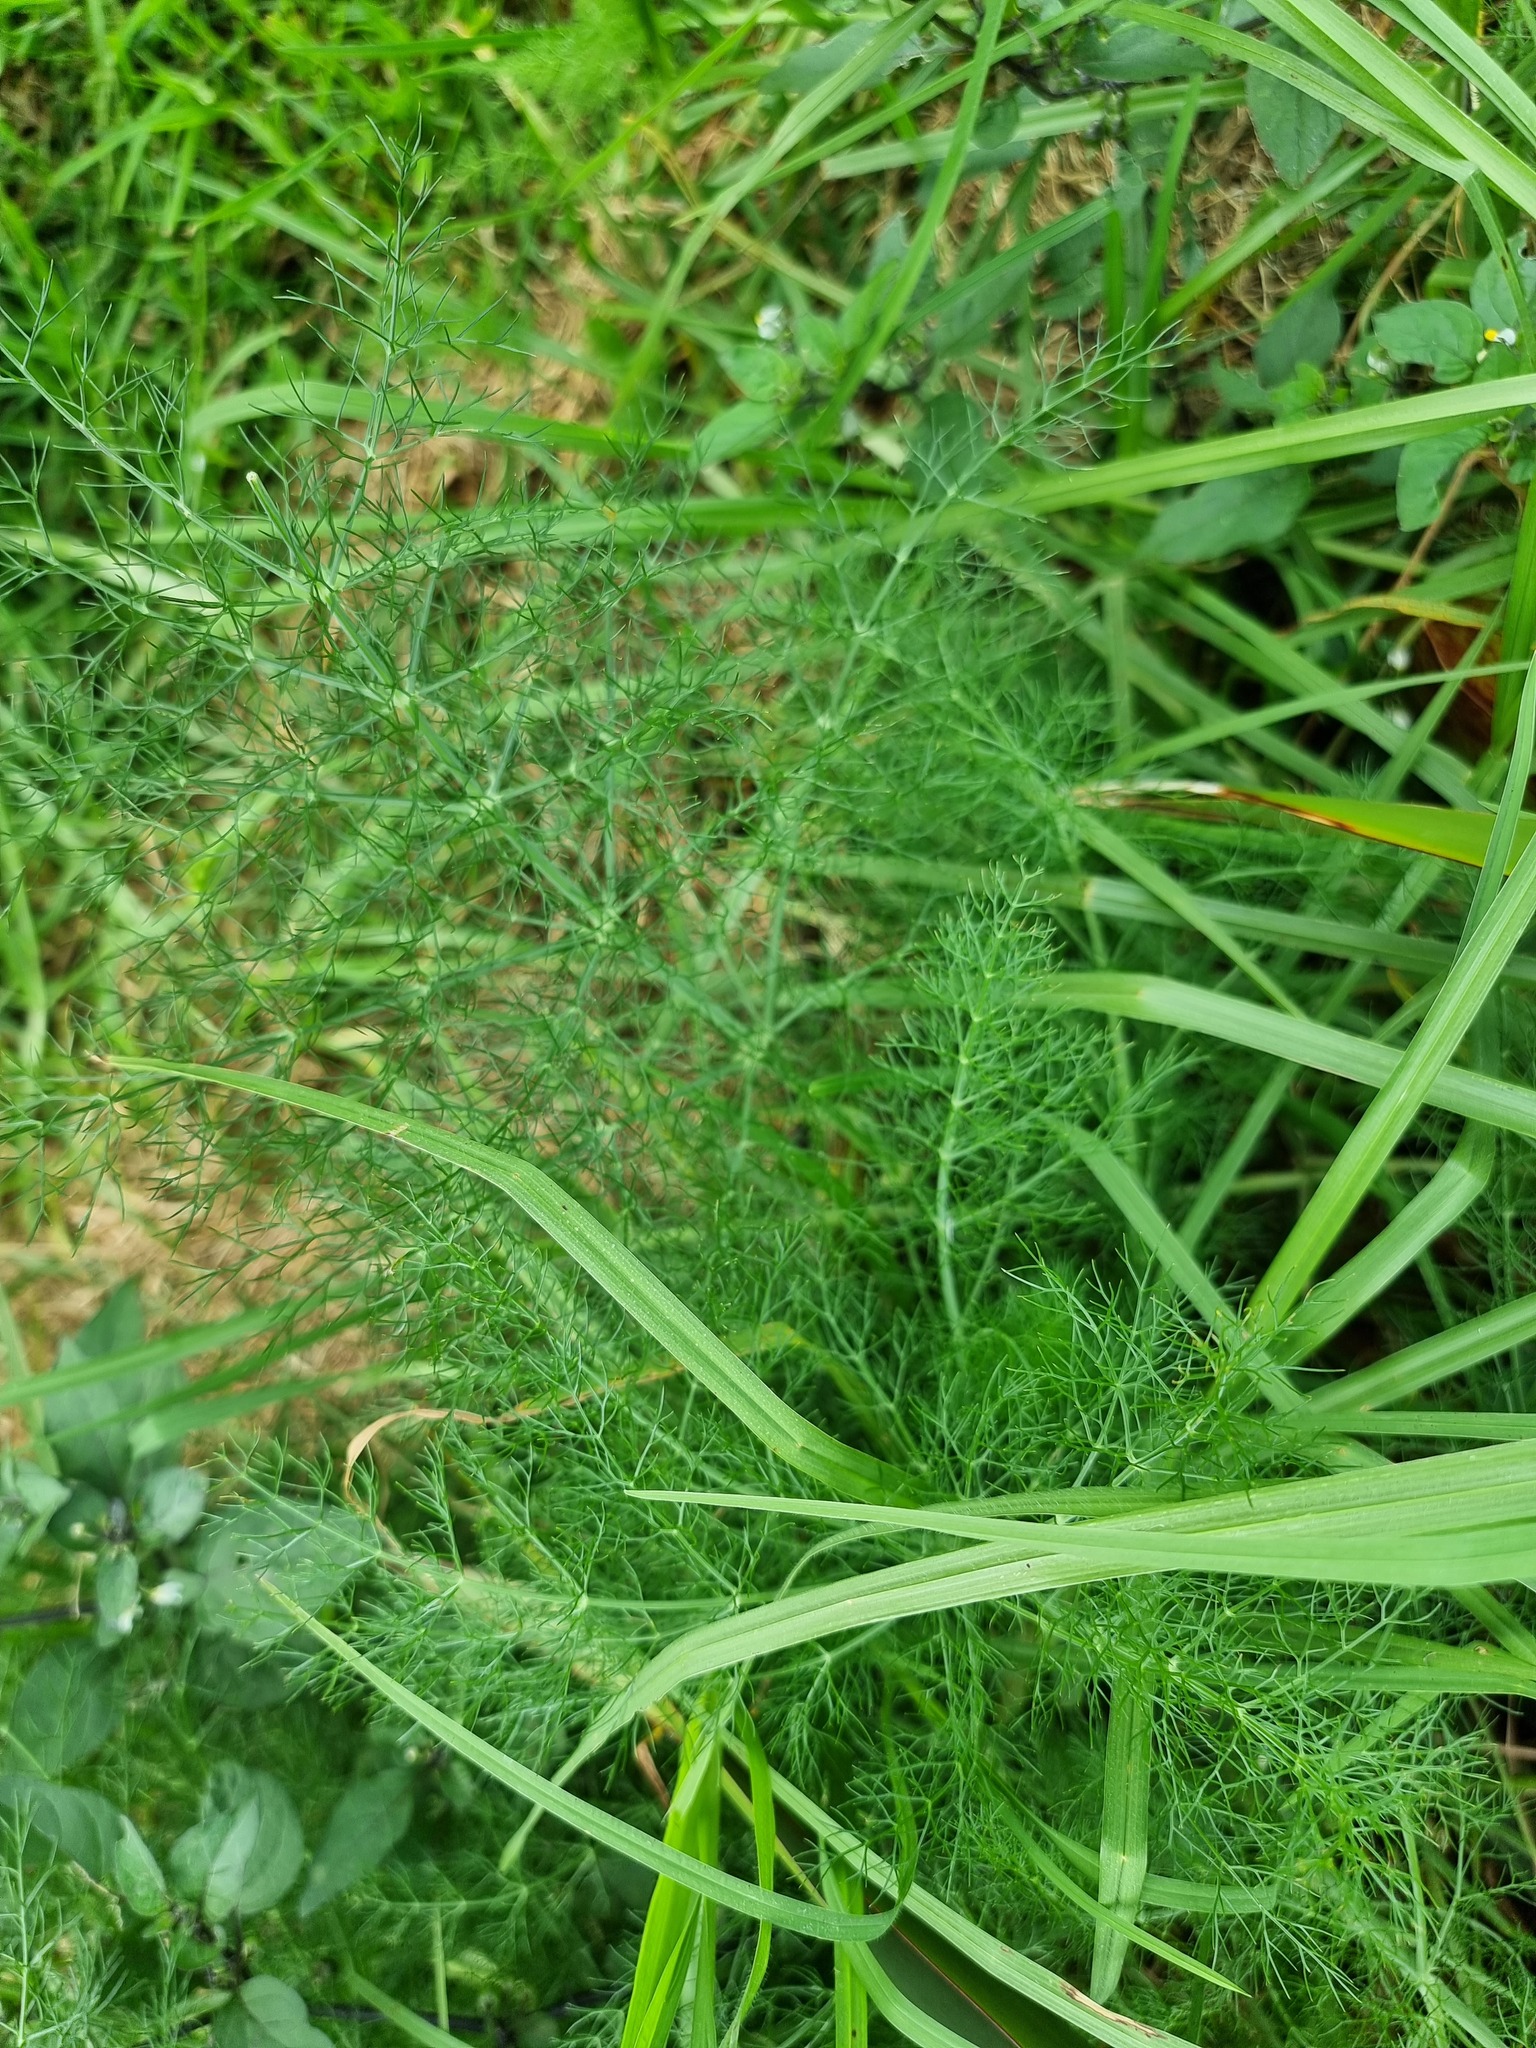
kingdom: Plantae
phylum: Tracheophyta
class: Magnoliopsida
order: Apiales
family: Apiaceae
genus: Foeniculum
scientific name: Foeniculum vulgare
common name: Fennel
